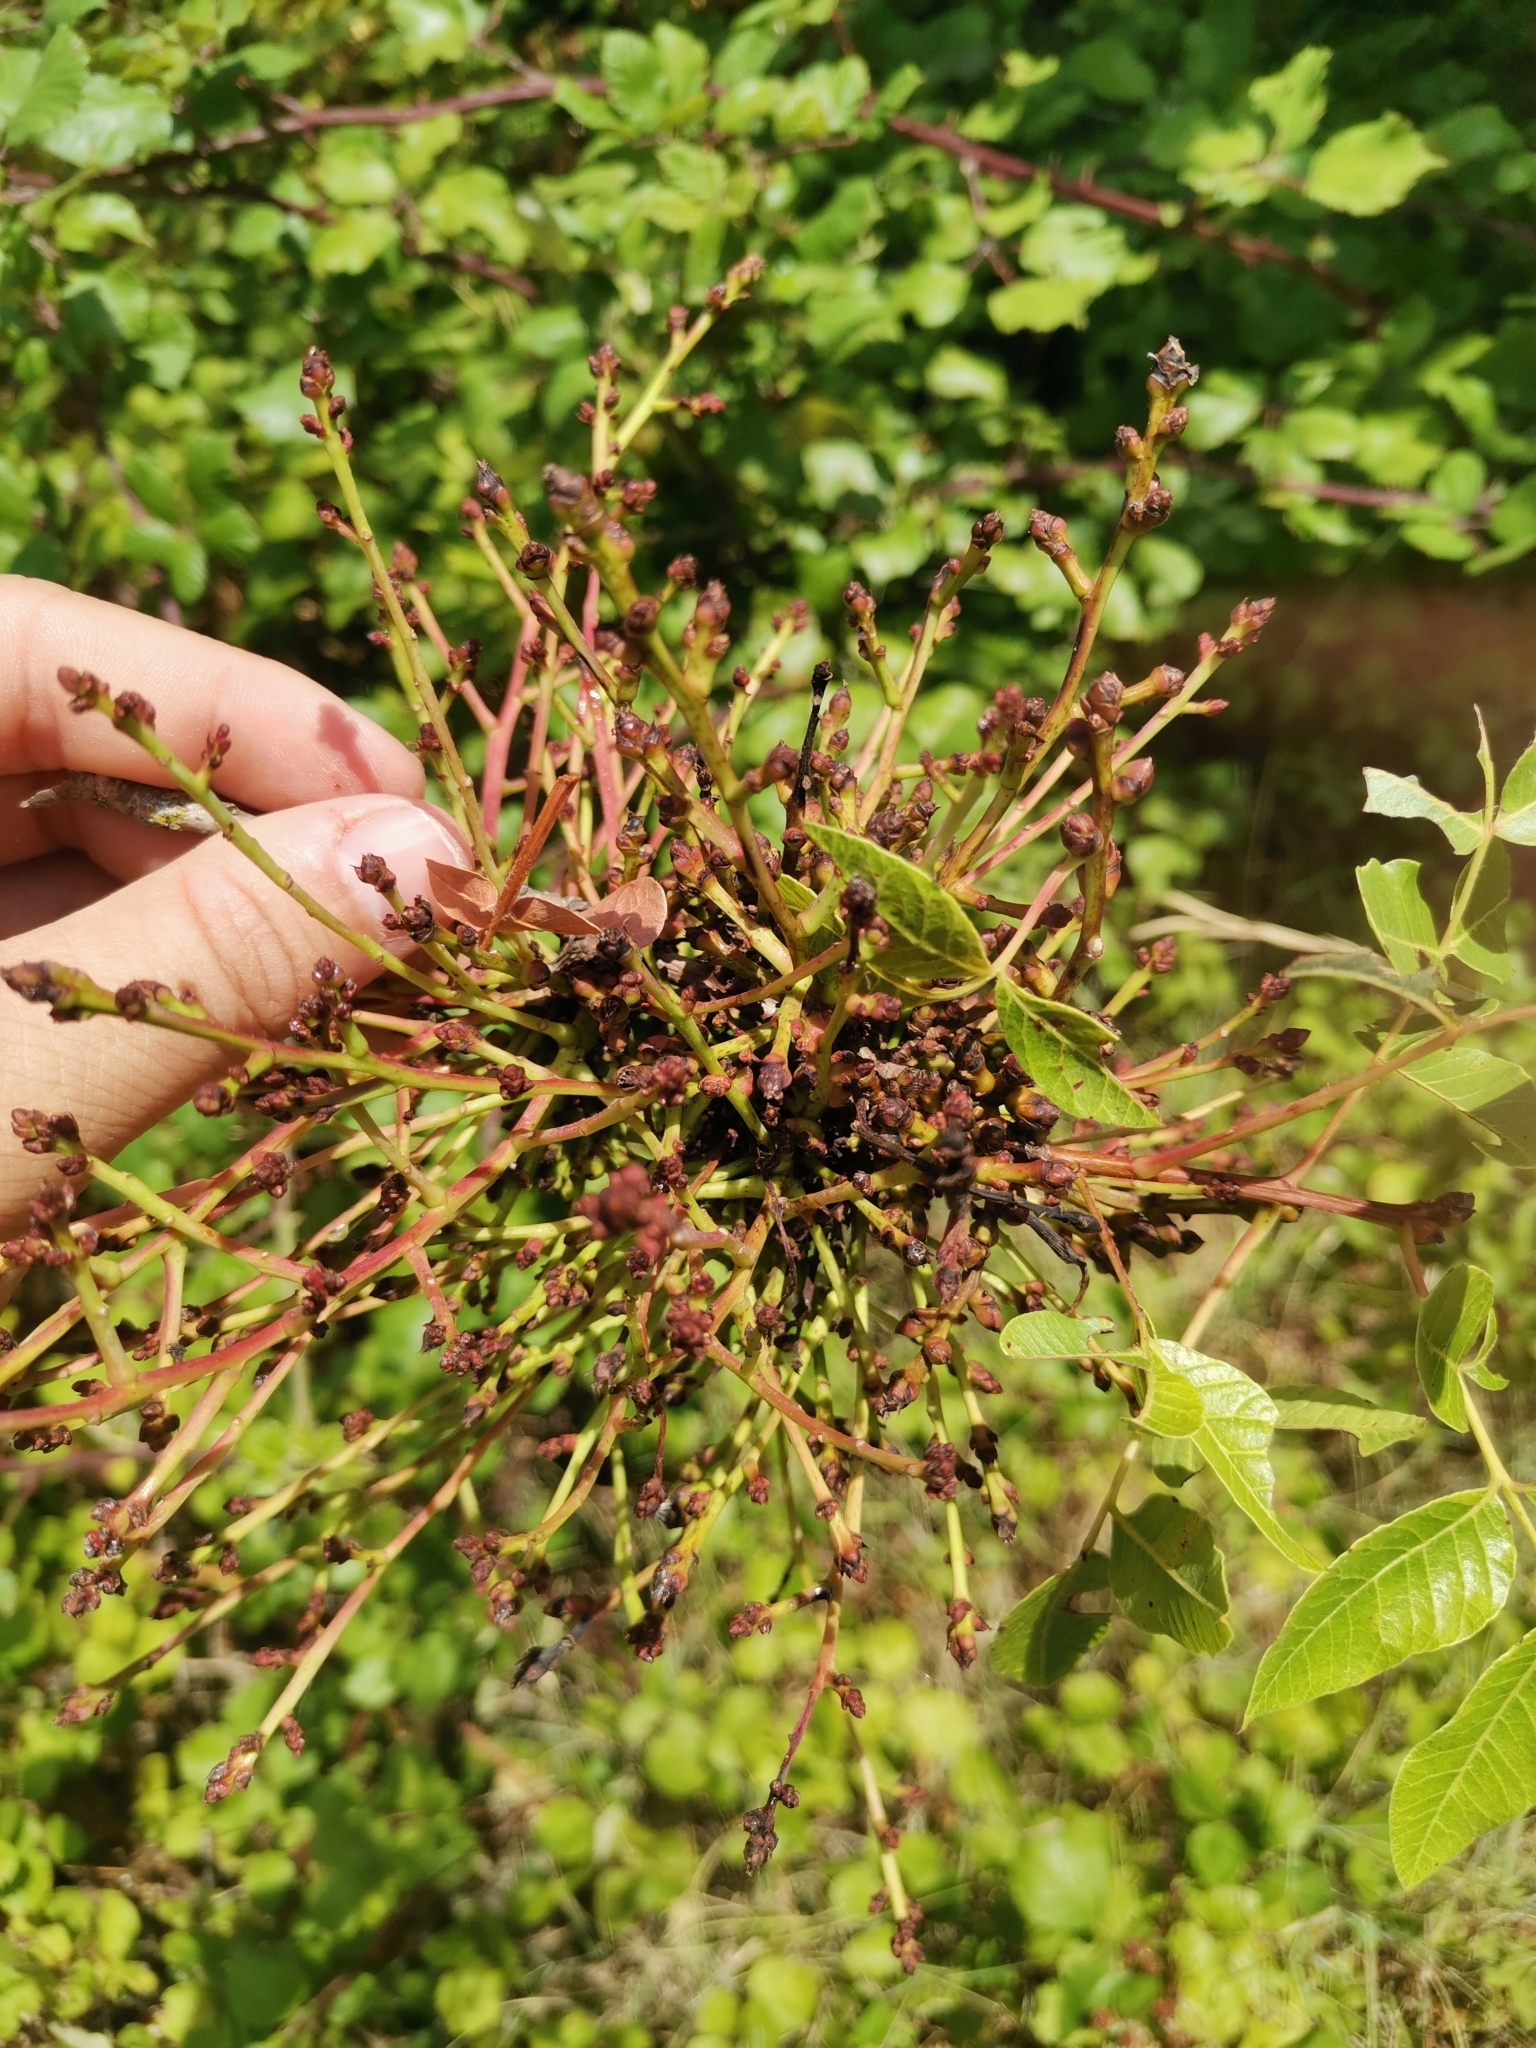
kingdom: Plantae
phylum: Tracheophyta
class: Magnoliopsida
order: Sapindales
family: Anacardiaceae
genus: Pistacia
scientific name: Pistacia terebinthus
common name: Terebinth
